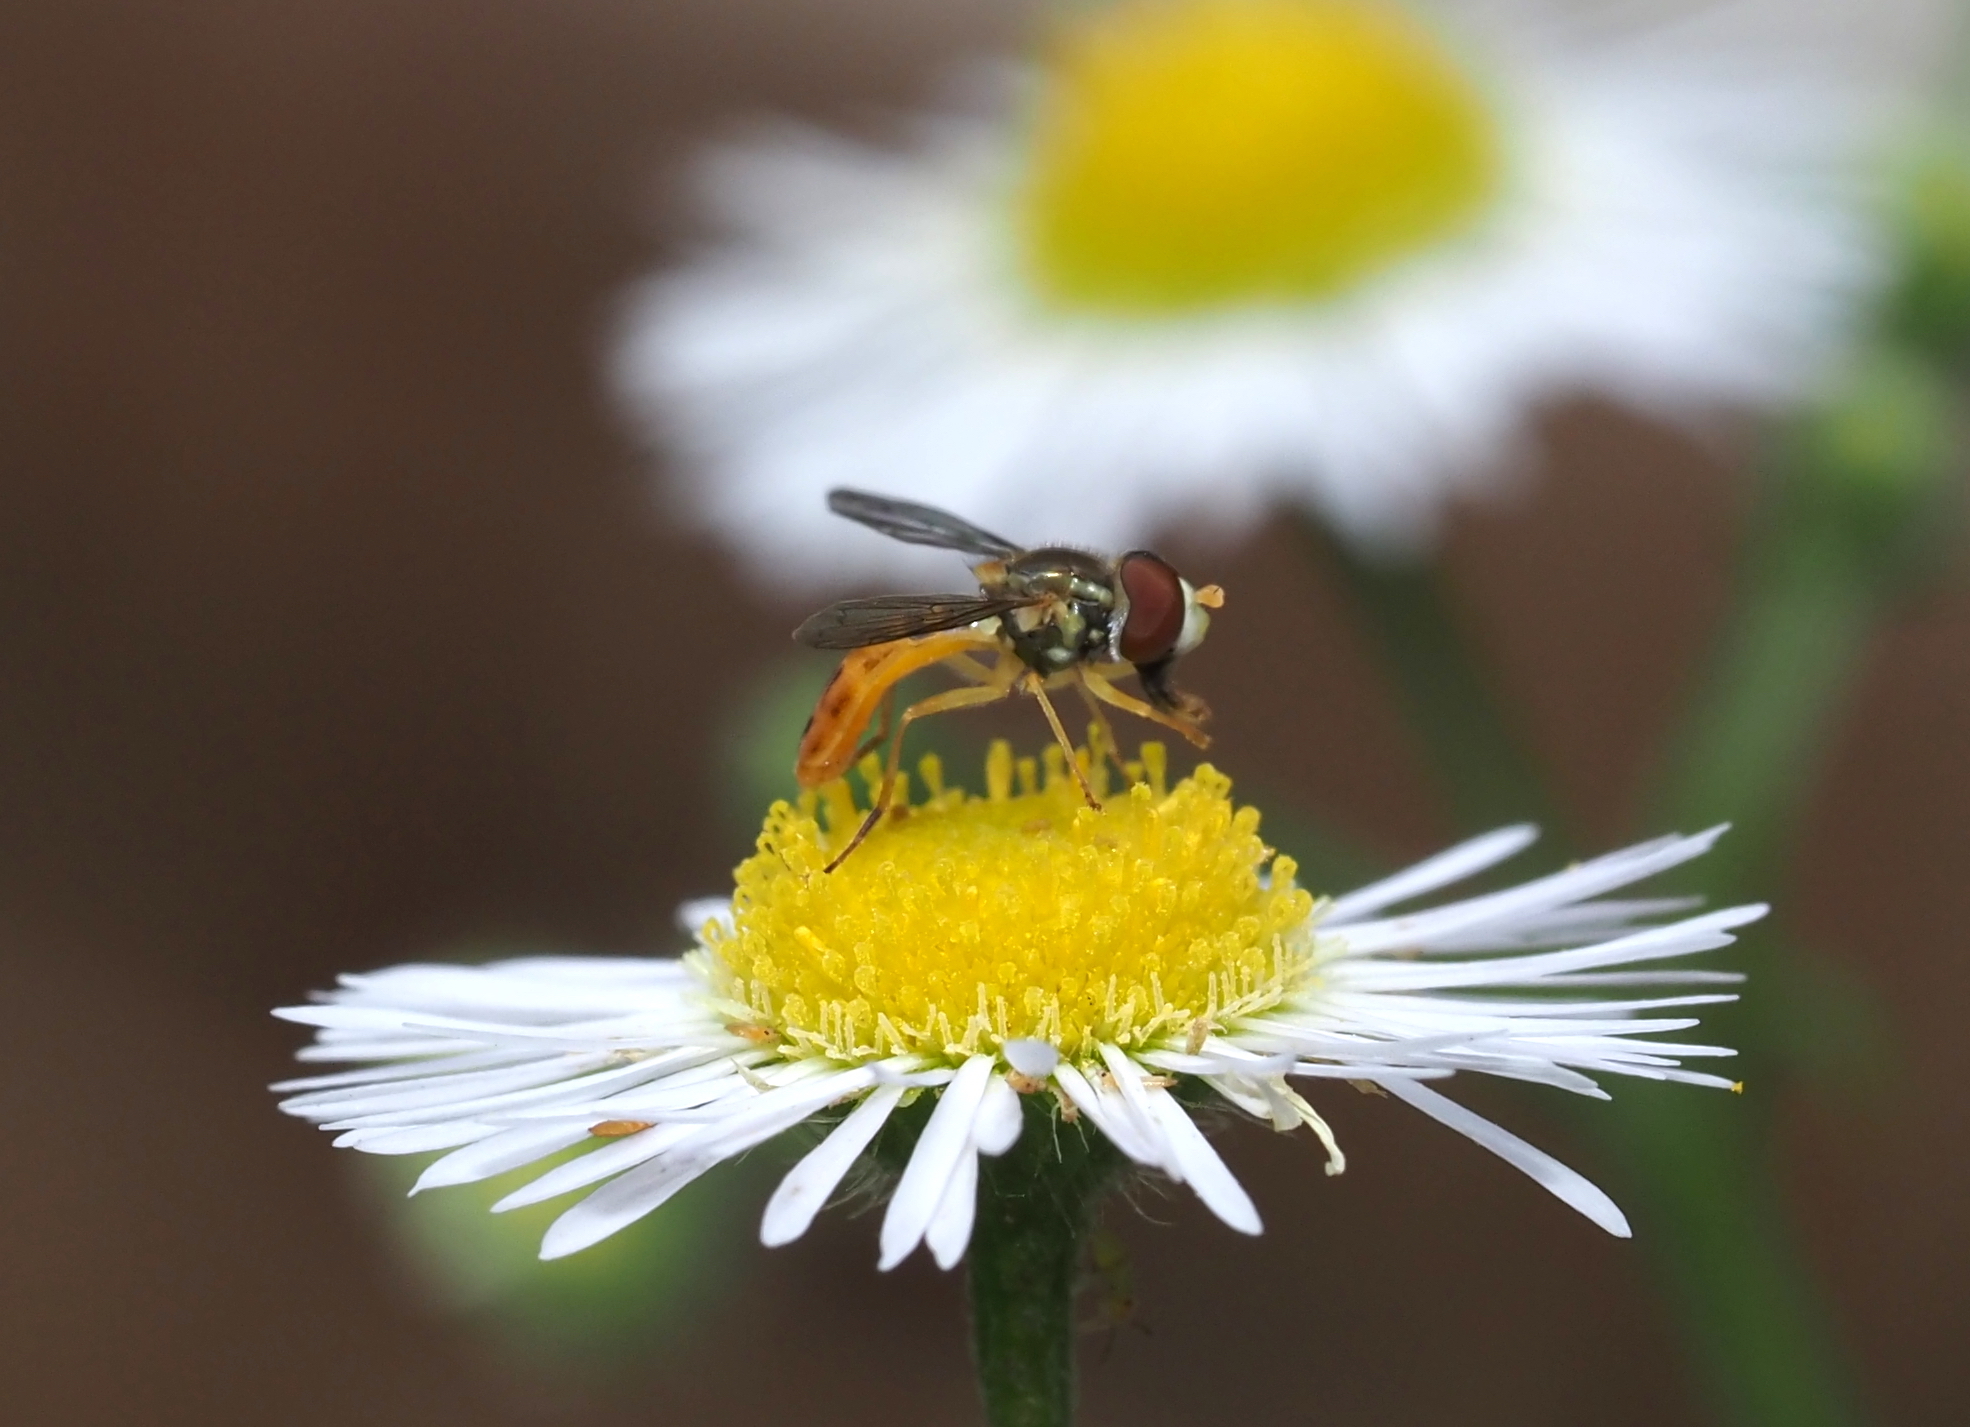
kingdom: Animalia
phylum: Arthropoda
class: Insecta
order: Diptera
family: Syrphidae
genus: Toxomerus
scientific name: Toxomerus marginatus
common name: Syrphid fly
